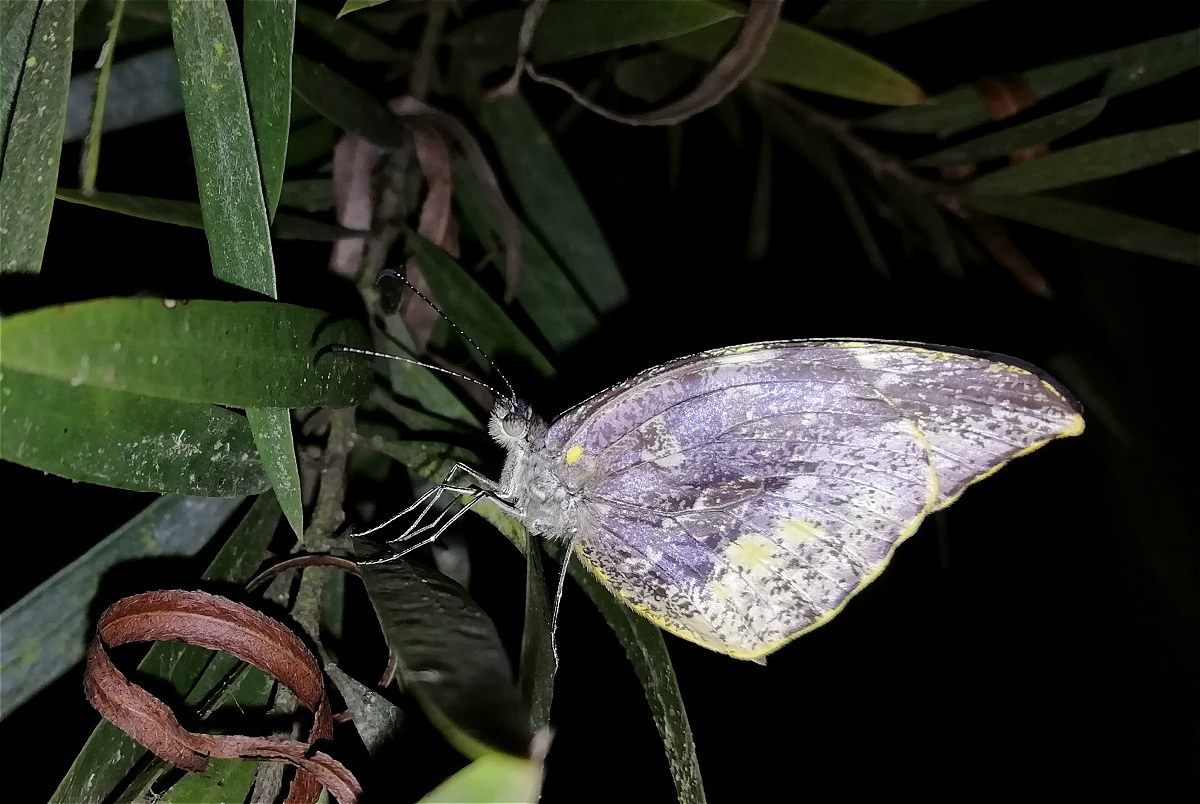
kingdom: Animalia
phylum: Arthropoda
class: Insecta
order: Lepidoptera
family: Pieridae
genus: Lieinix
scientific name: Lieinix nemesis
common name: Frosted mimic-white
